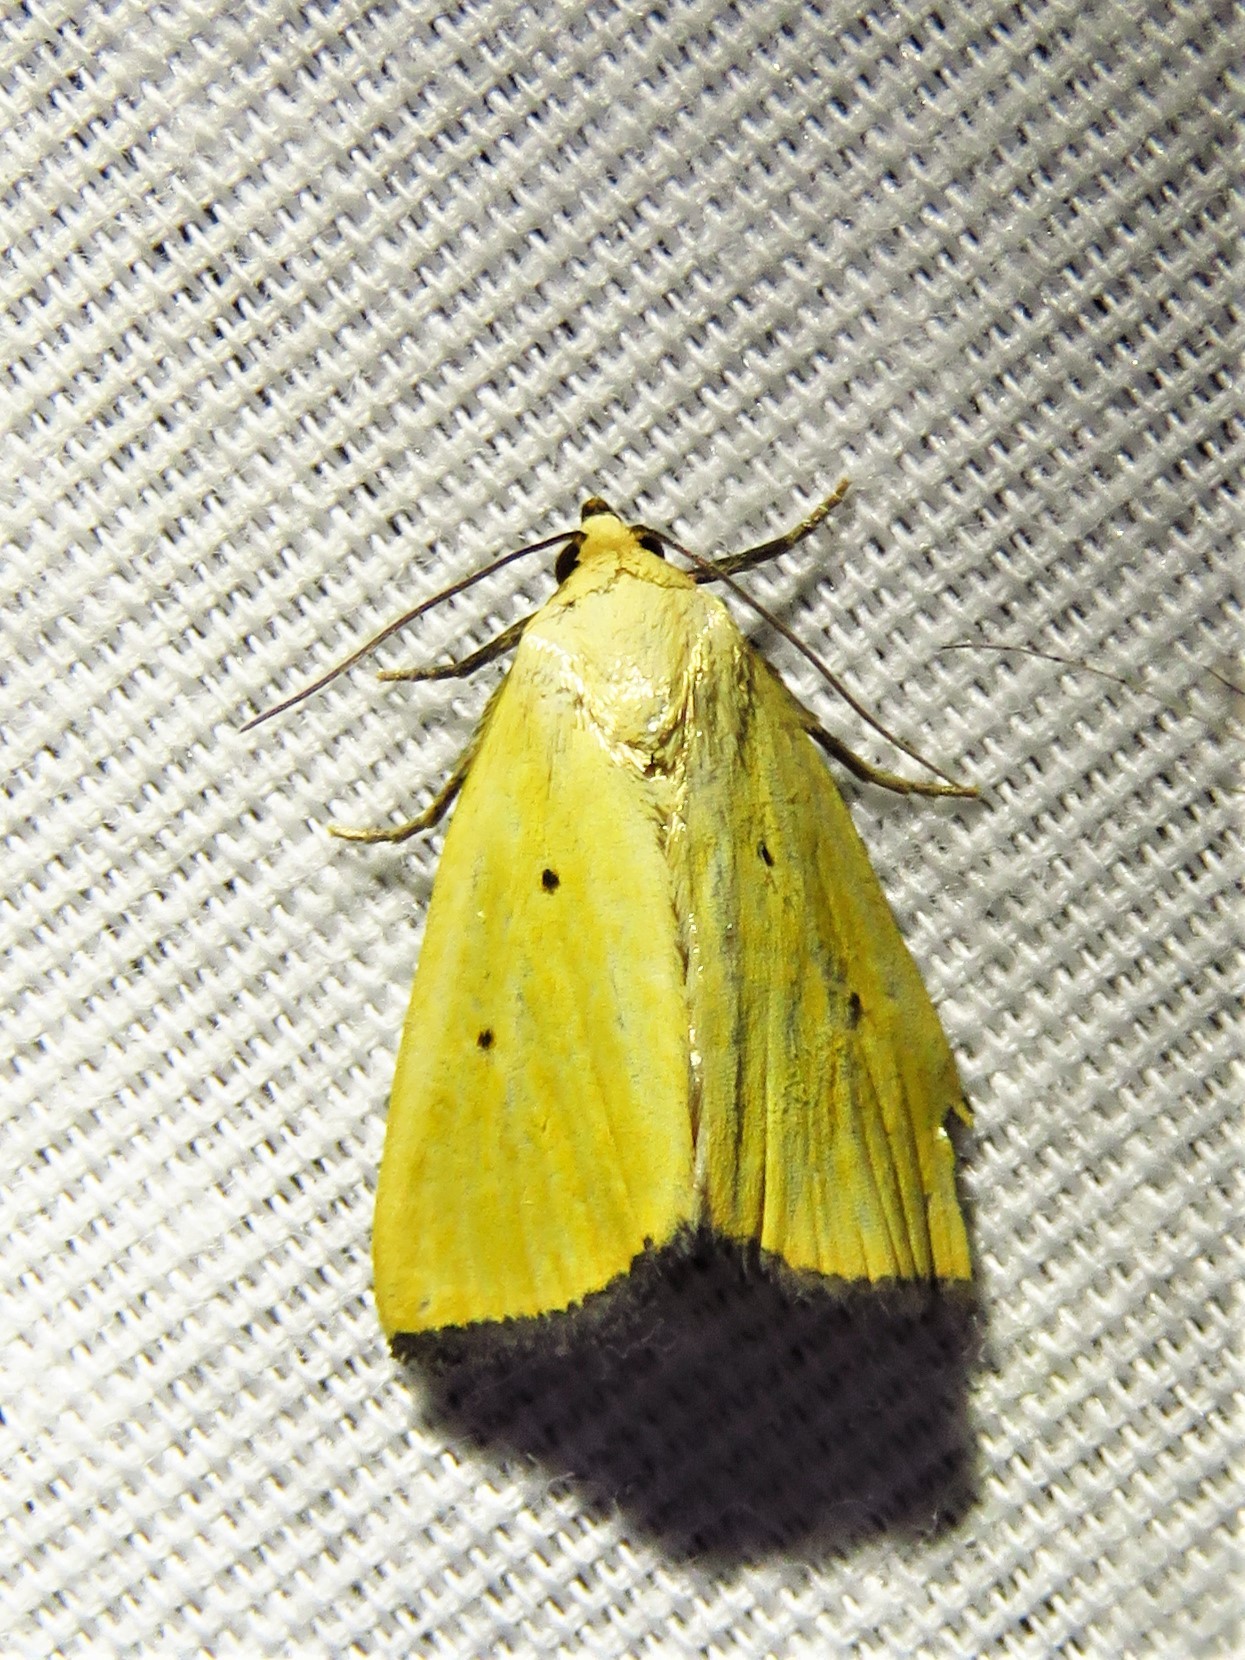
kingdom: Animalia
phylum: Arthropoda
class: Insecta
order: Lepidoptera
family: Noctuidae
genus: Marimatha
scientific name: Marimatha nigrofimbria
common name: Black-bordered lemon moth
